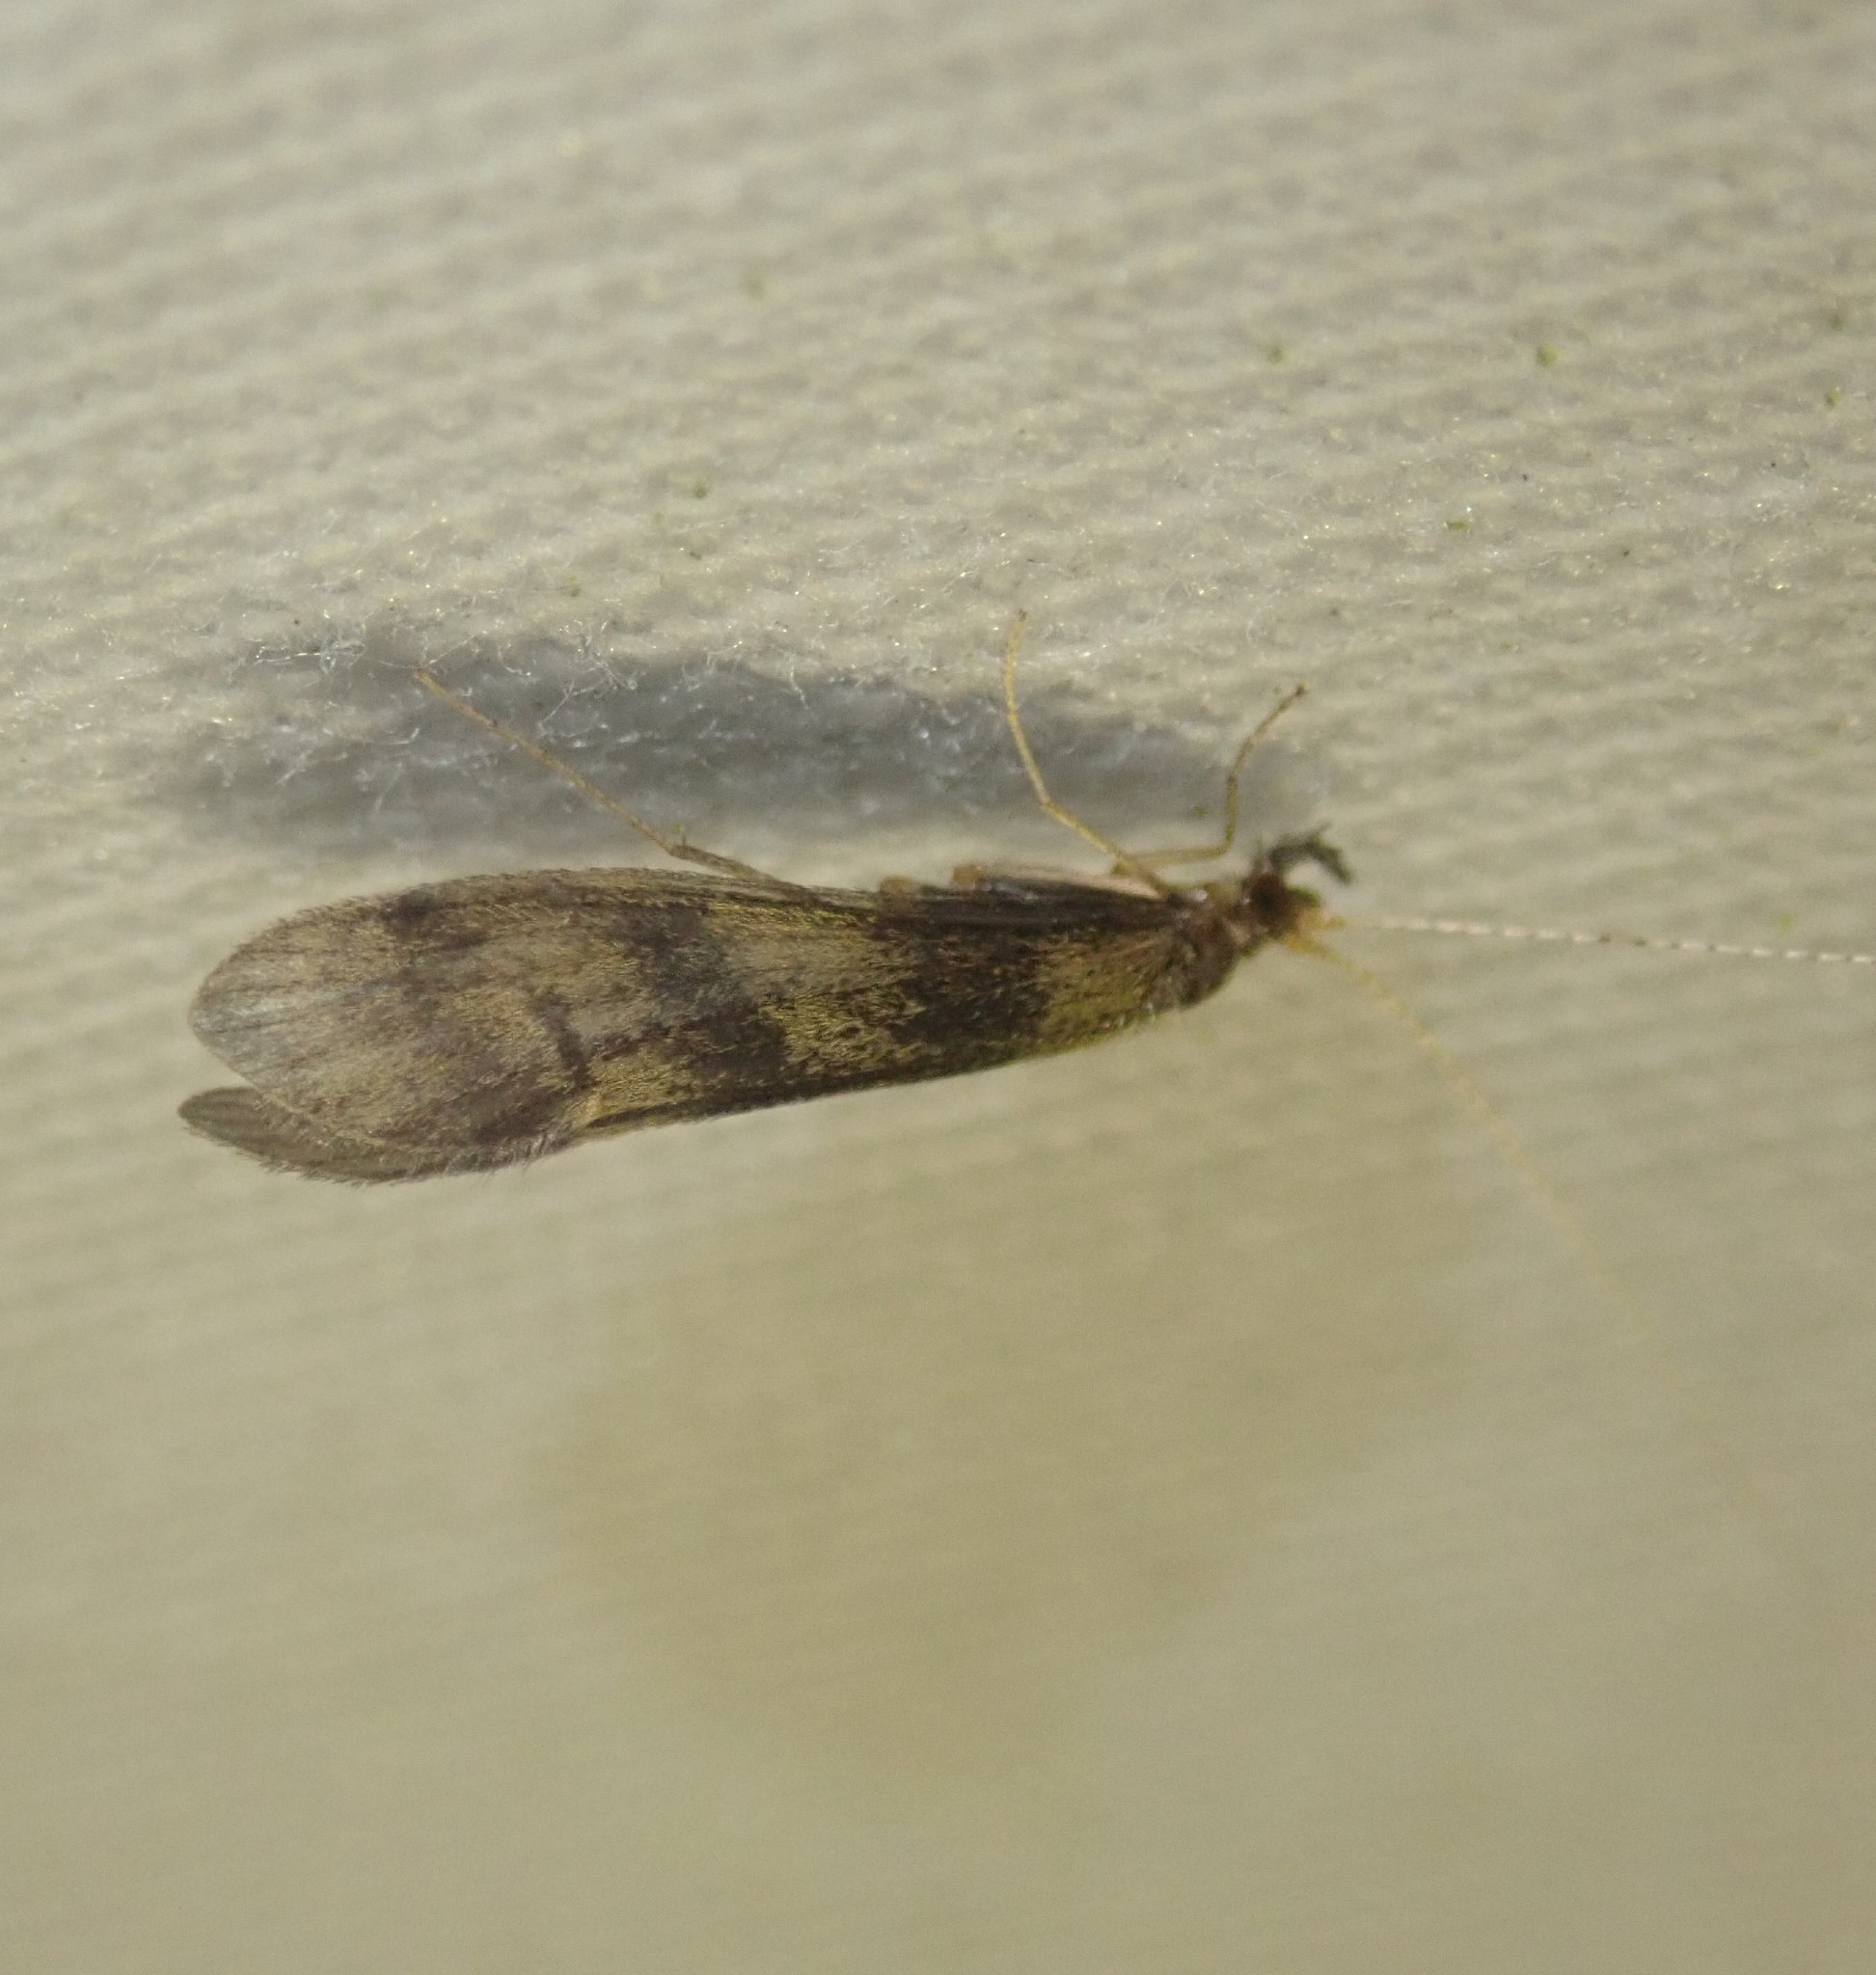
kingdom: Animalia
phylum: Arthropoda
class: Insecta
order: Trichoptera
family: Leptoceridae
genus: Mystacides
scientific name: Mystacides longicornis
